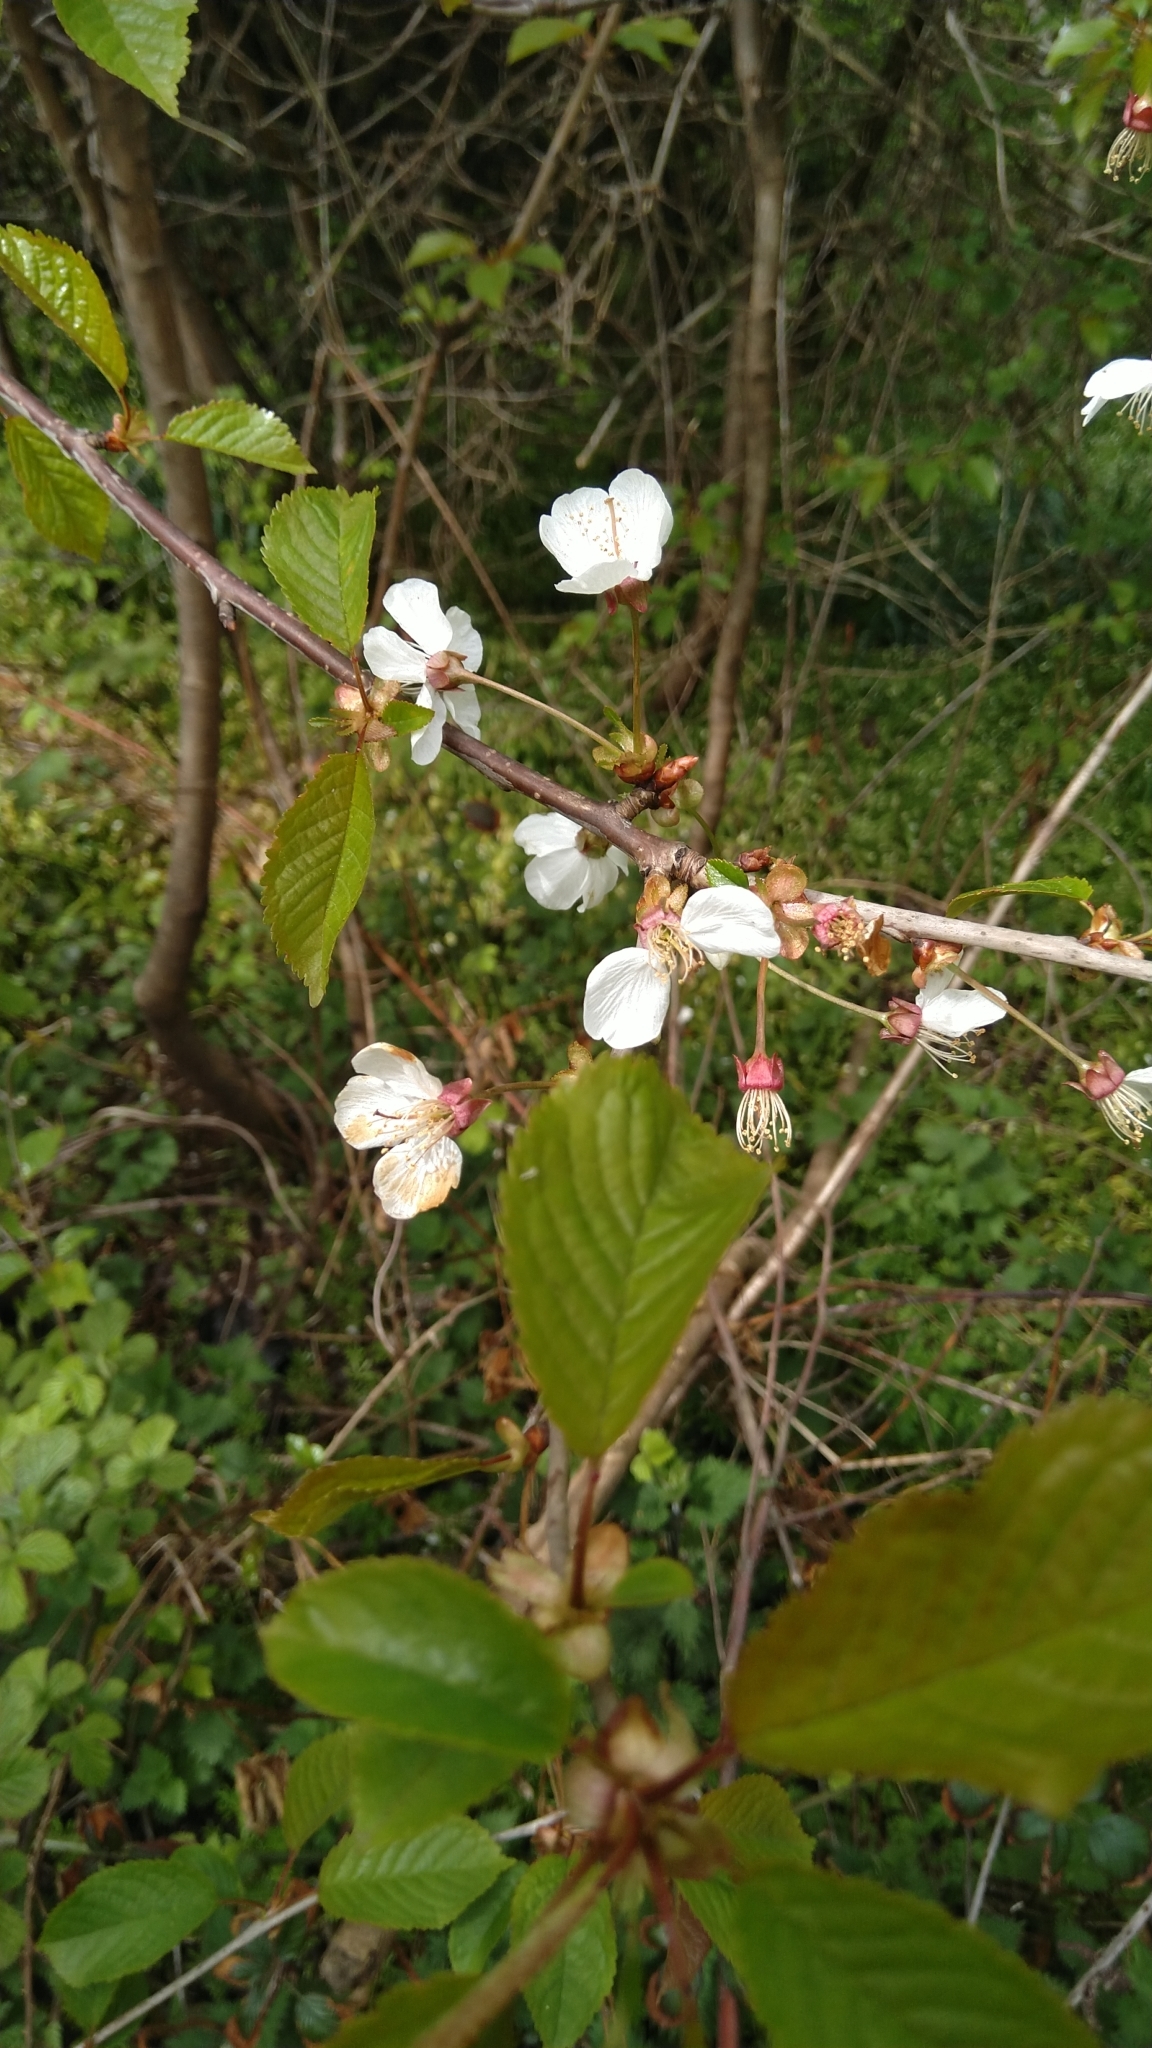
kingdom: Plantae
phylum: Tracheophyta
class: Magnoliopsida
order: Rosales
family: Rosaceae
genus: Prunus
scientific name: Prunus avium
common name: Sweet cherry
